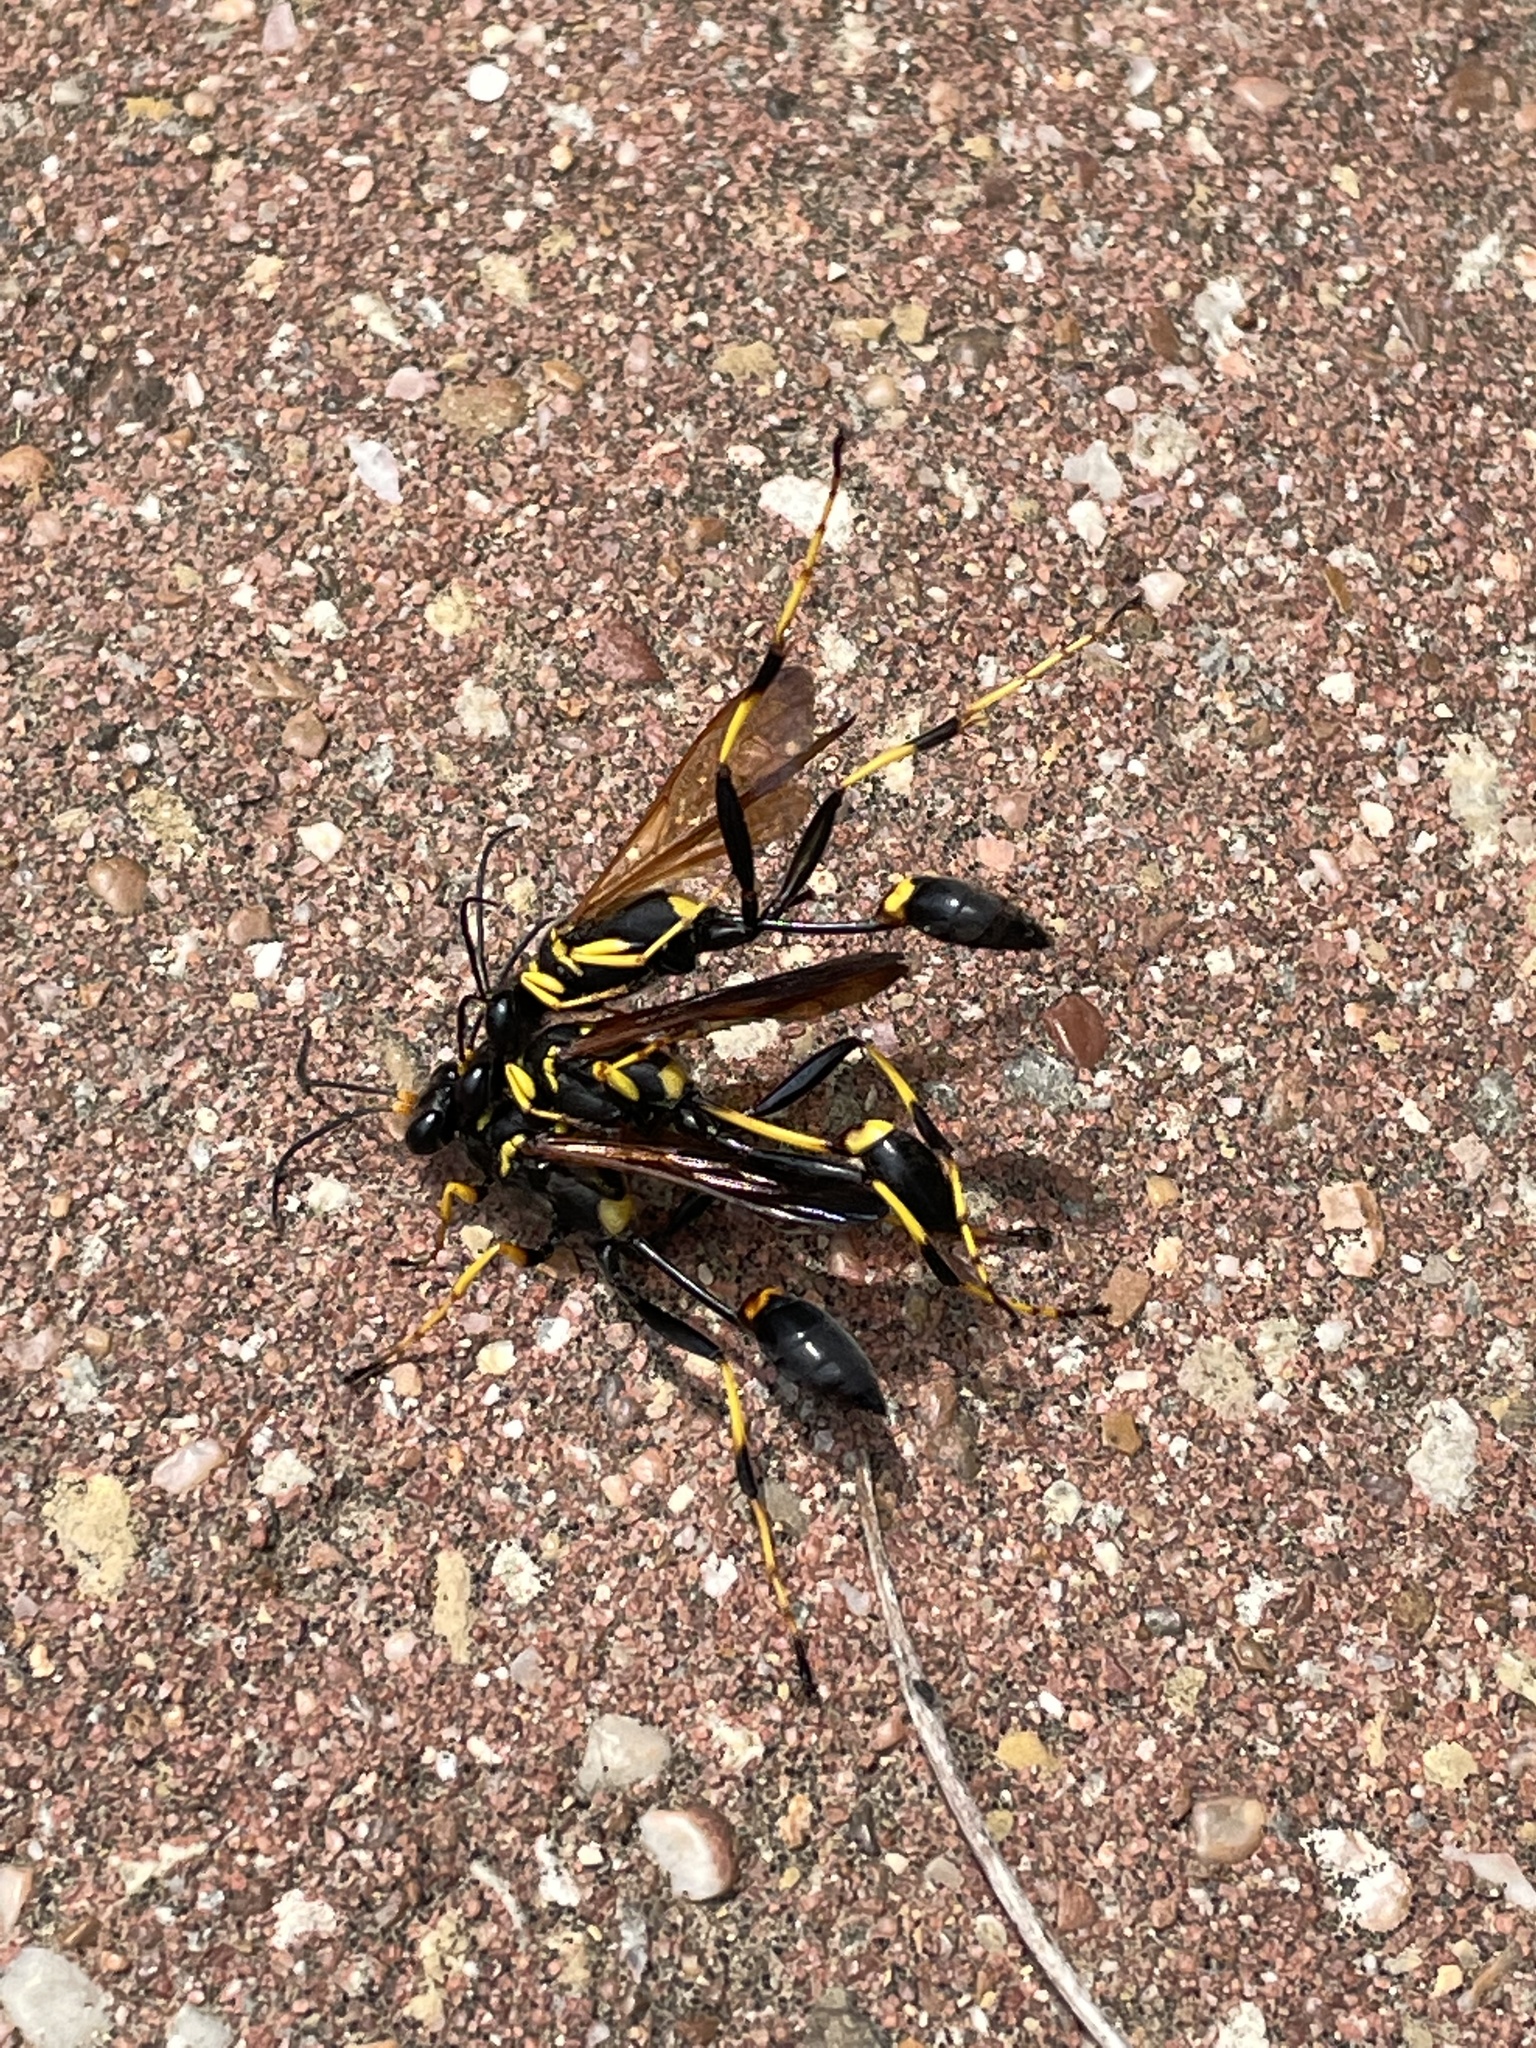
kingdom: Animalia
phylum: Arthropoda
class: Insecta
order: Hymenoptera
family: Sphecidae
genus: Sceliphron
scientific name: Sceliphron caementarium
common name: Mud dauber
